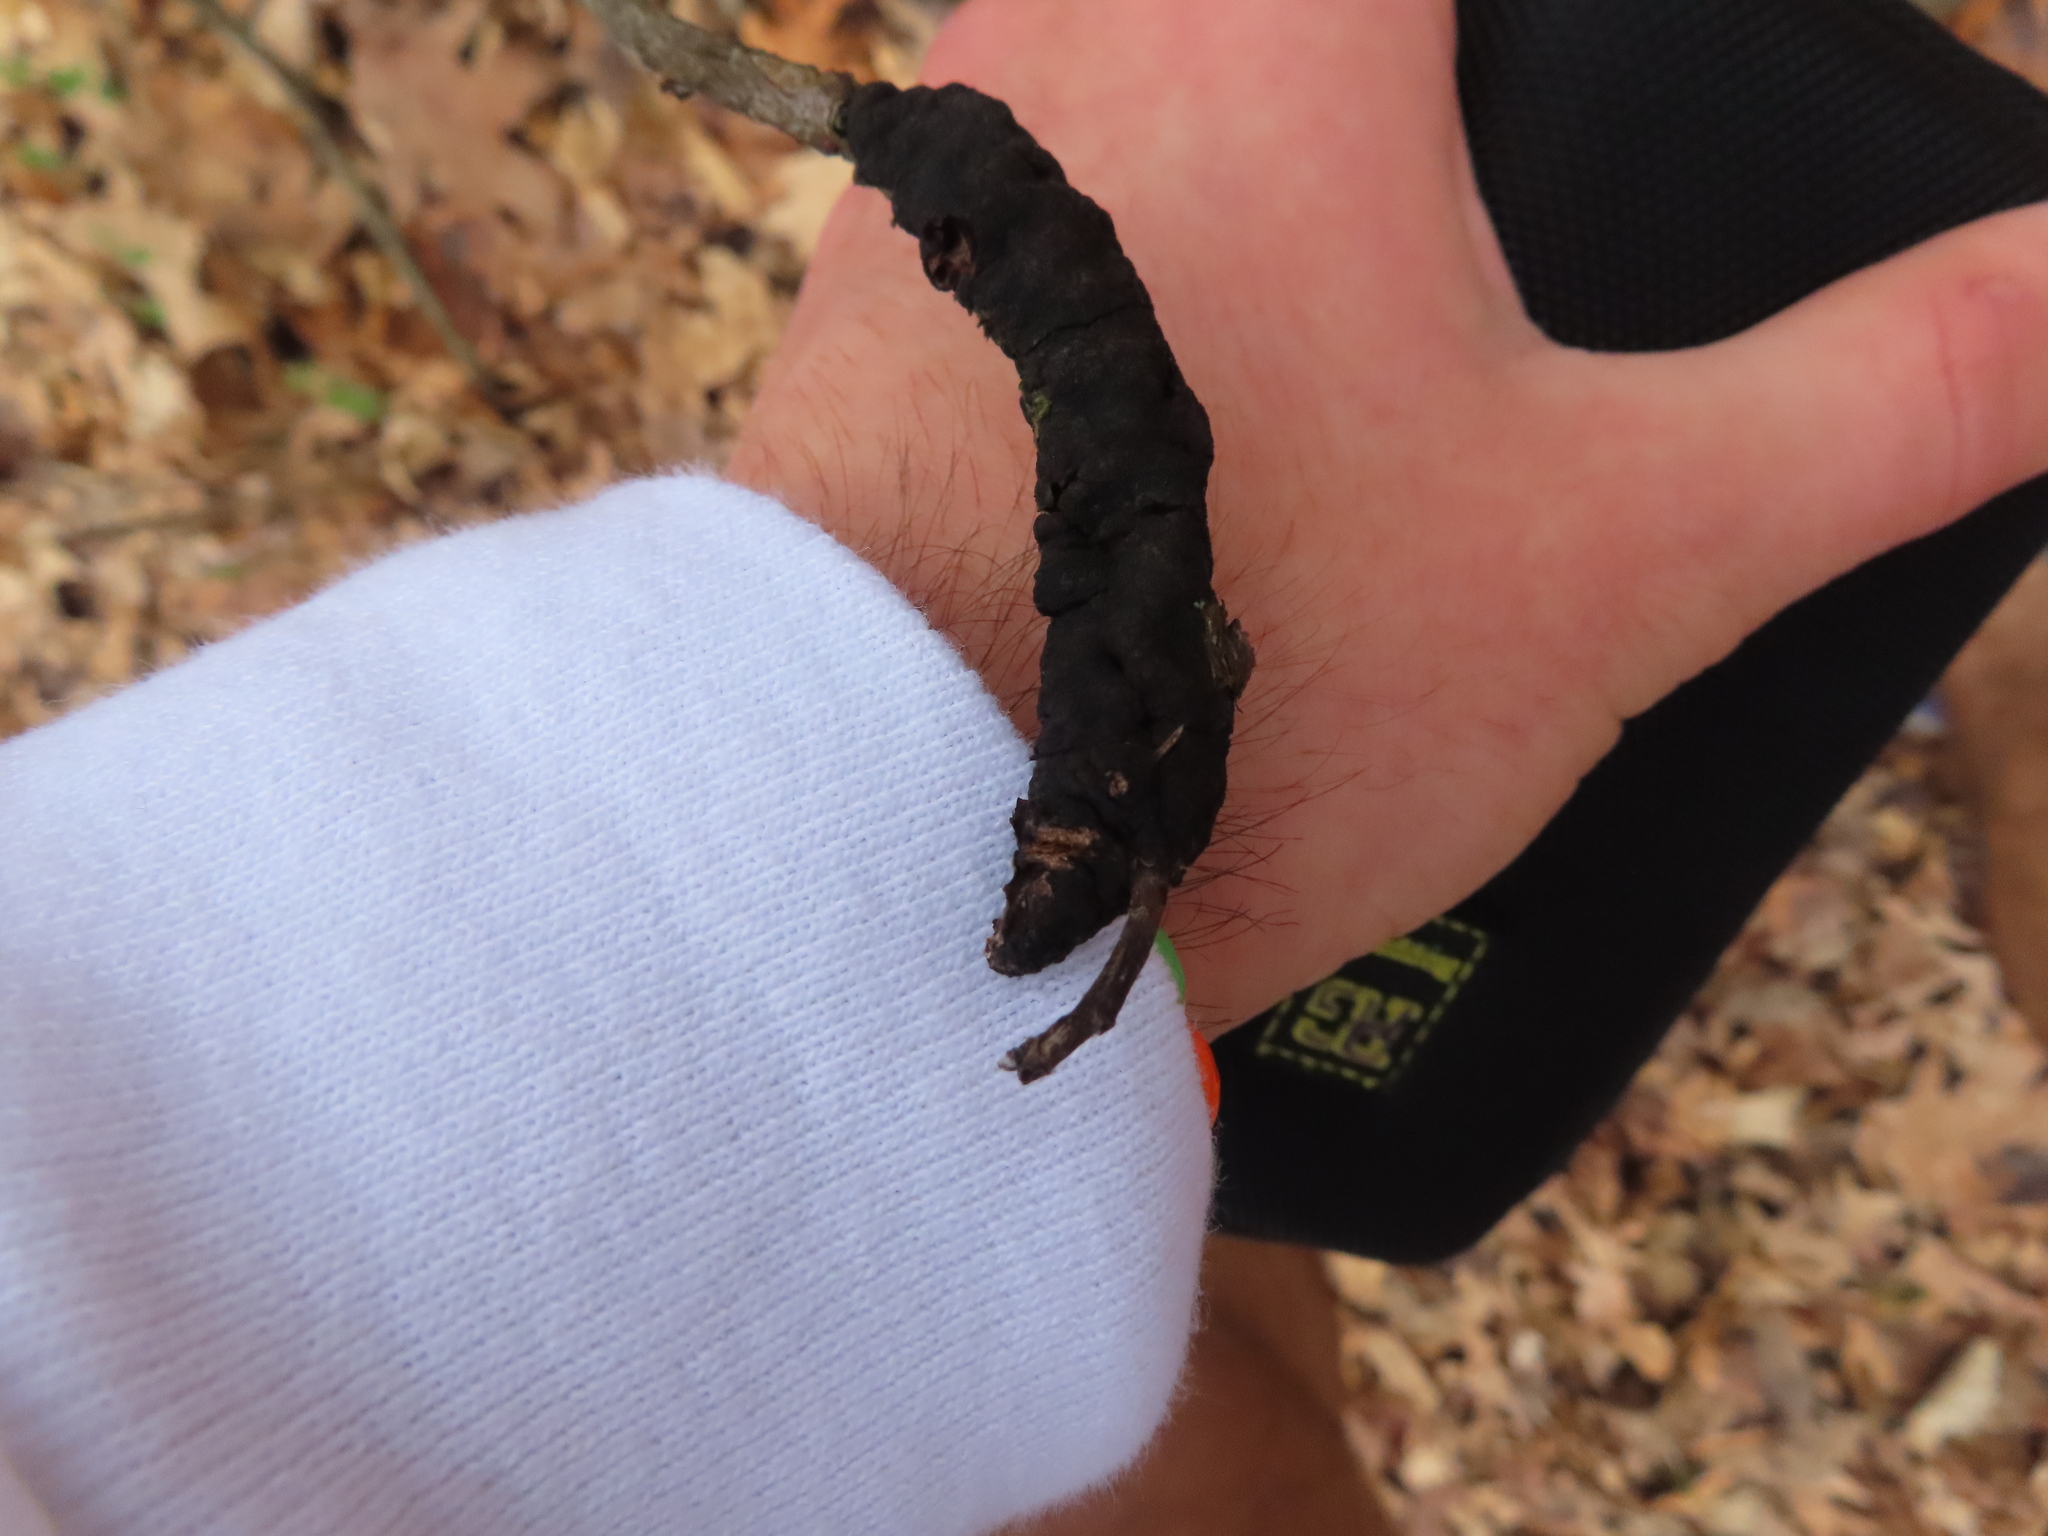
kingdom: Fungi
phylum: Ascomycota
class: Dothideomycetes
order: Venturiales
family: Venturiaceae
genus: Apiosporina
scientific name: Apiosporina morbosa
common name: Black knot
